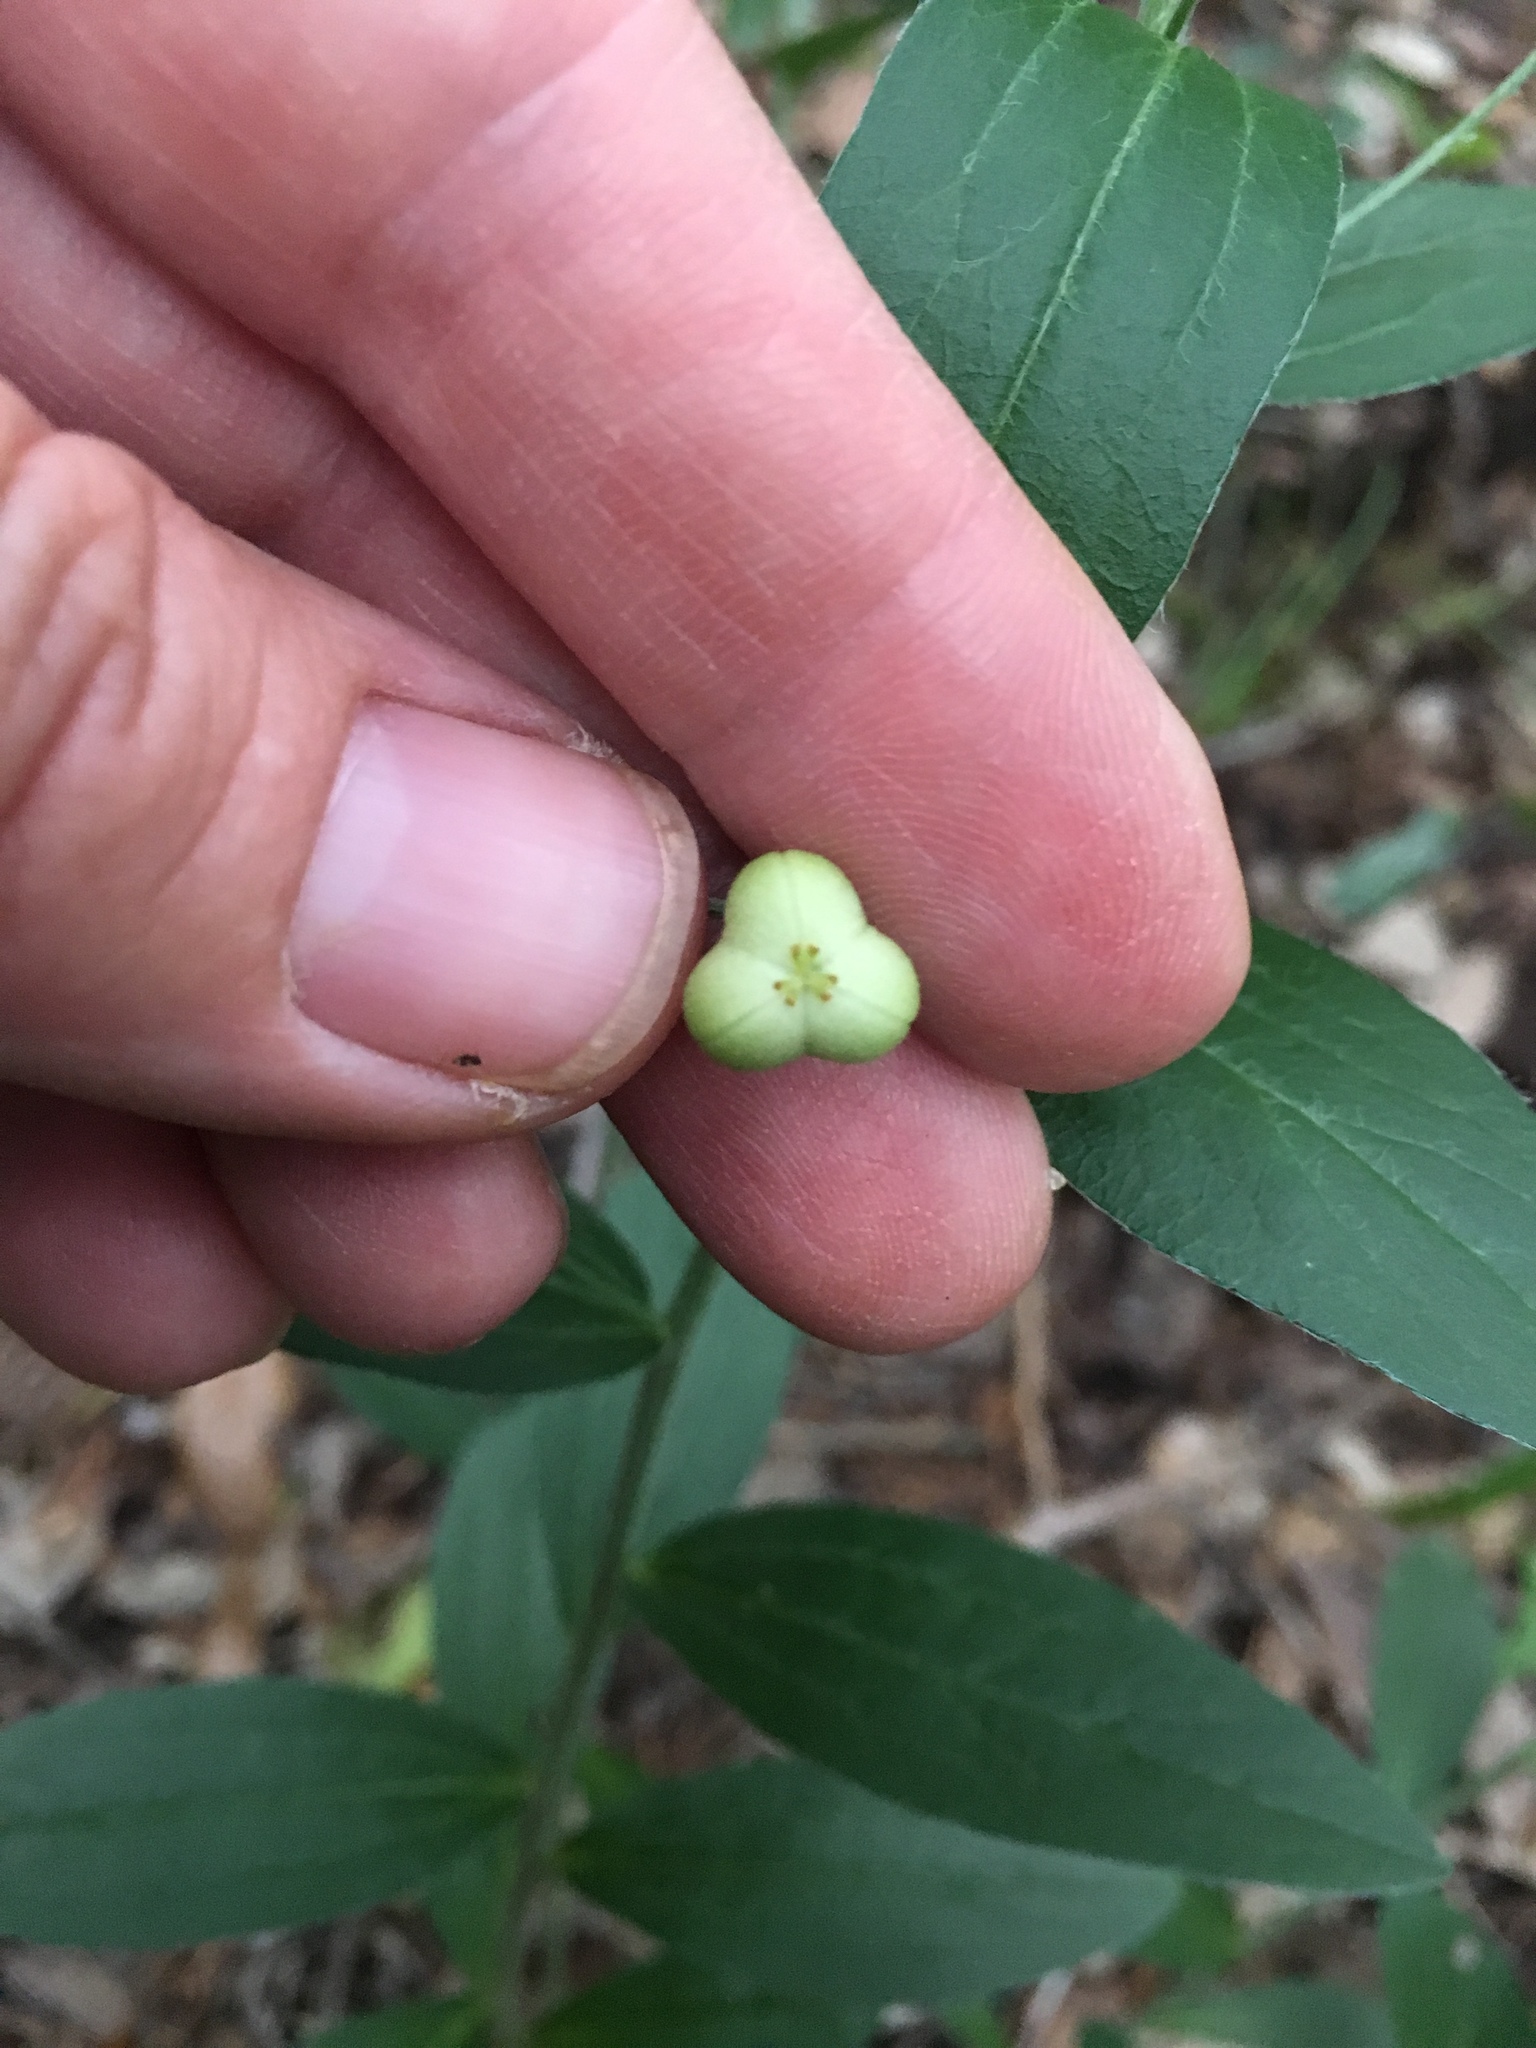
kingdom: Plantae
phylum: Tracheophyta
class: Magnoliopsida
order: Malpighiales
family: Euphorbiaceae
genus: Ditaxis
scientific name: Ditaxis simulans
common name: Plateau silverbush
